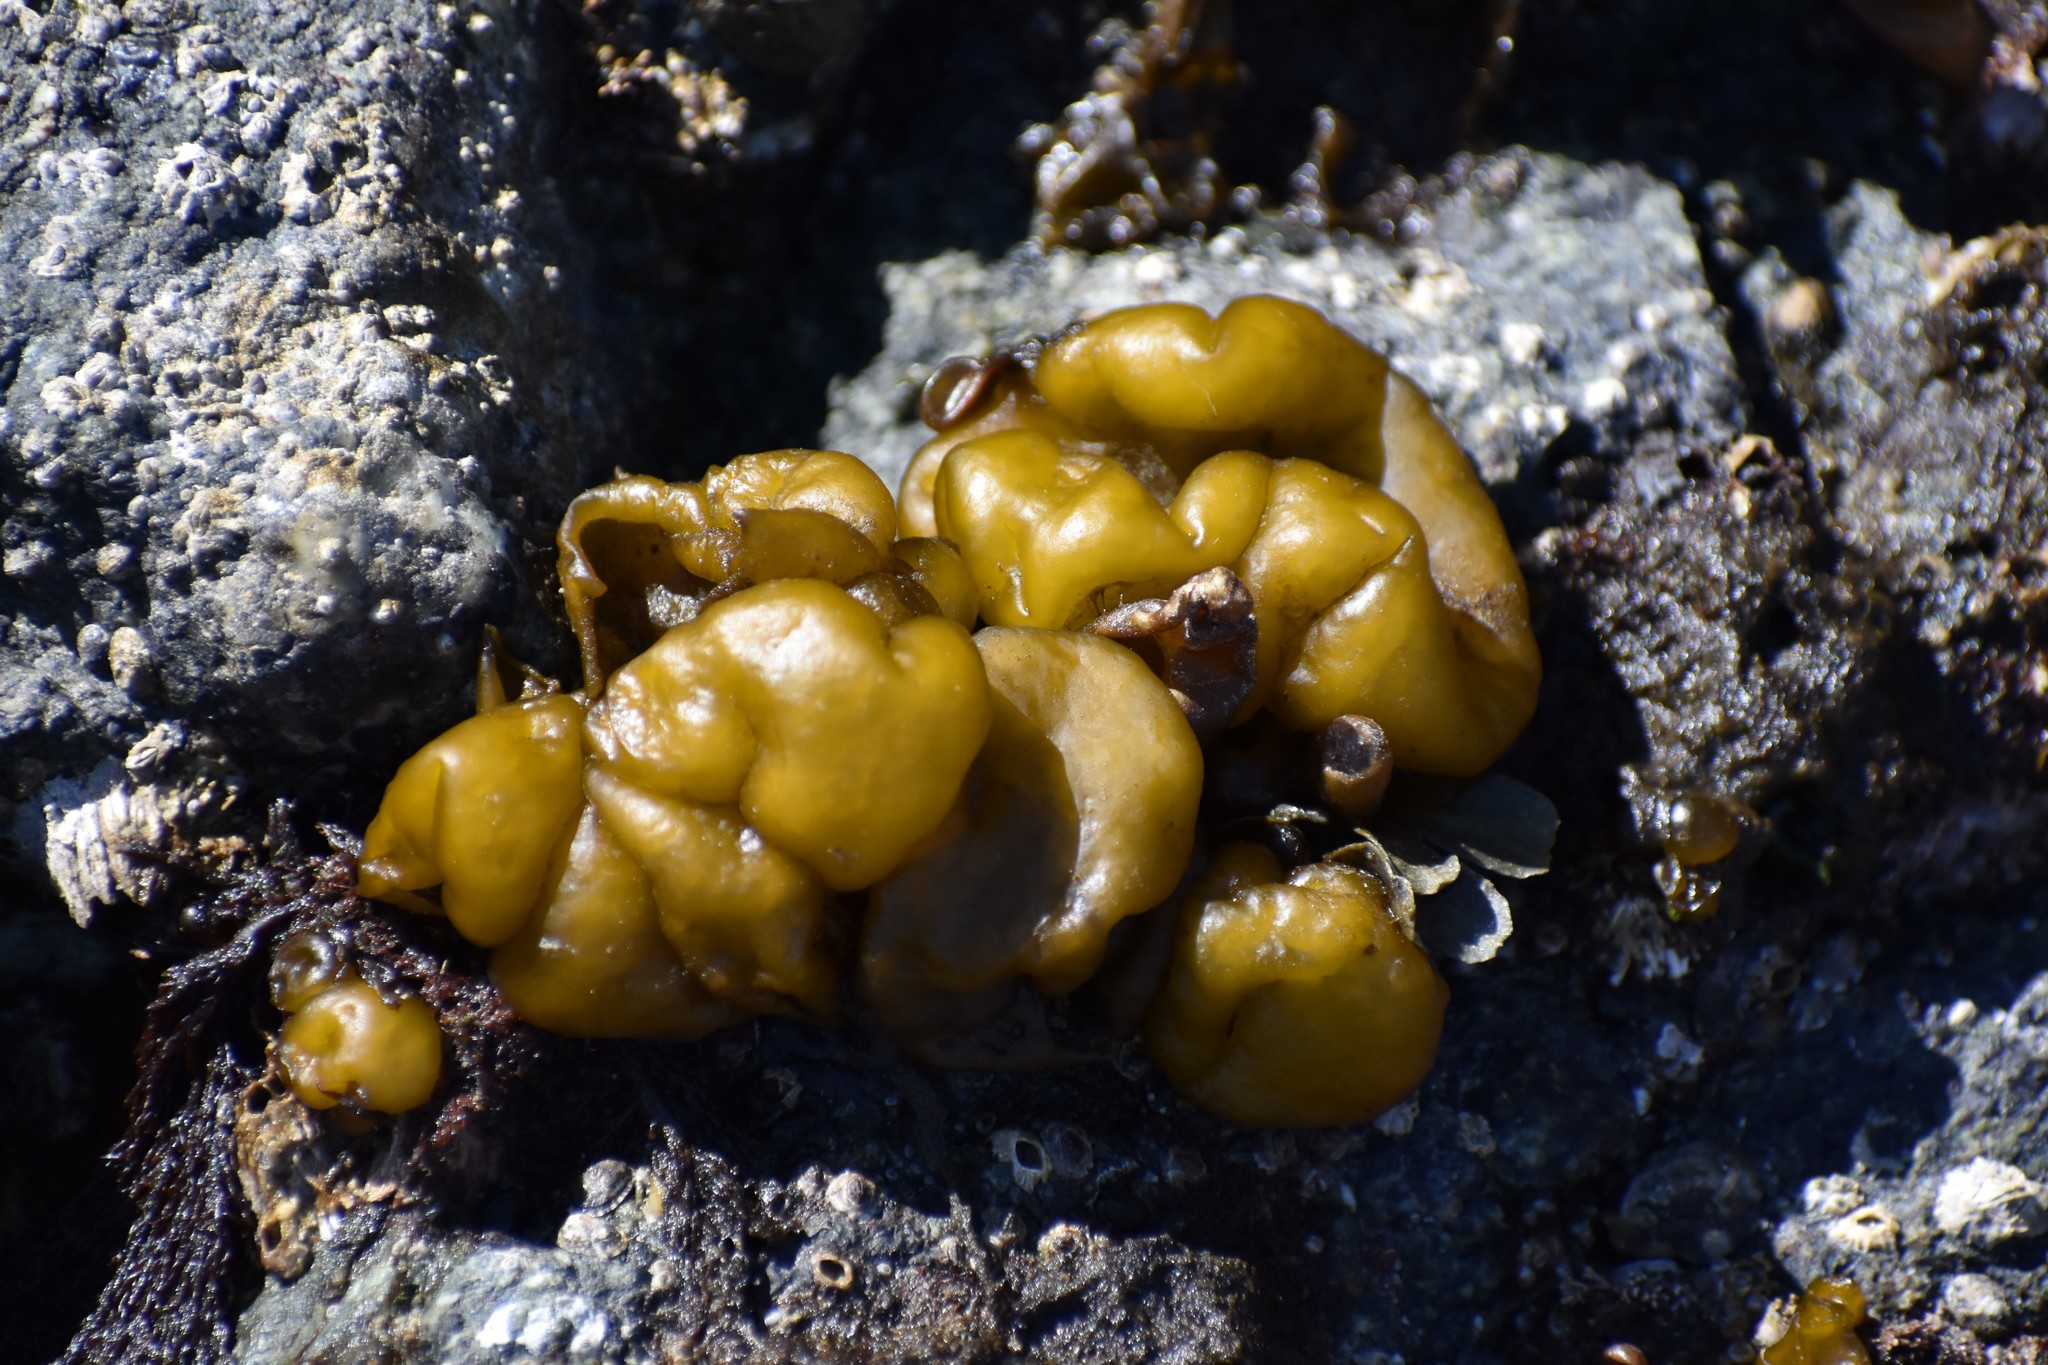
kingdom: Chromista
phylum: Ochrophyta
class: Phaeophyceae
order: Ectocarpales
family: Chordariaceae
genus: Leathesia
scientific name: Leathesia marina
